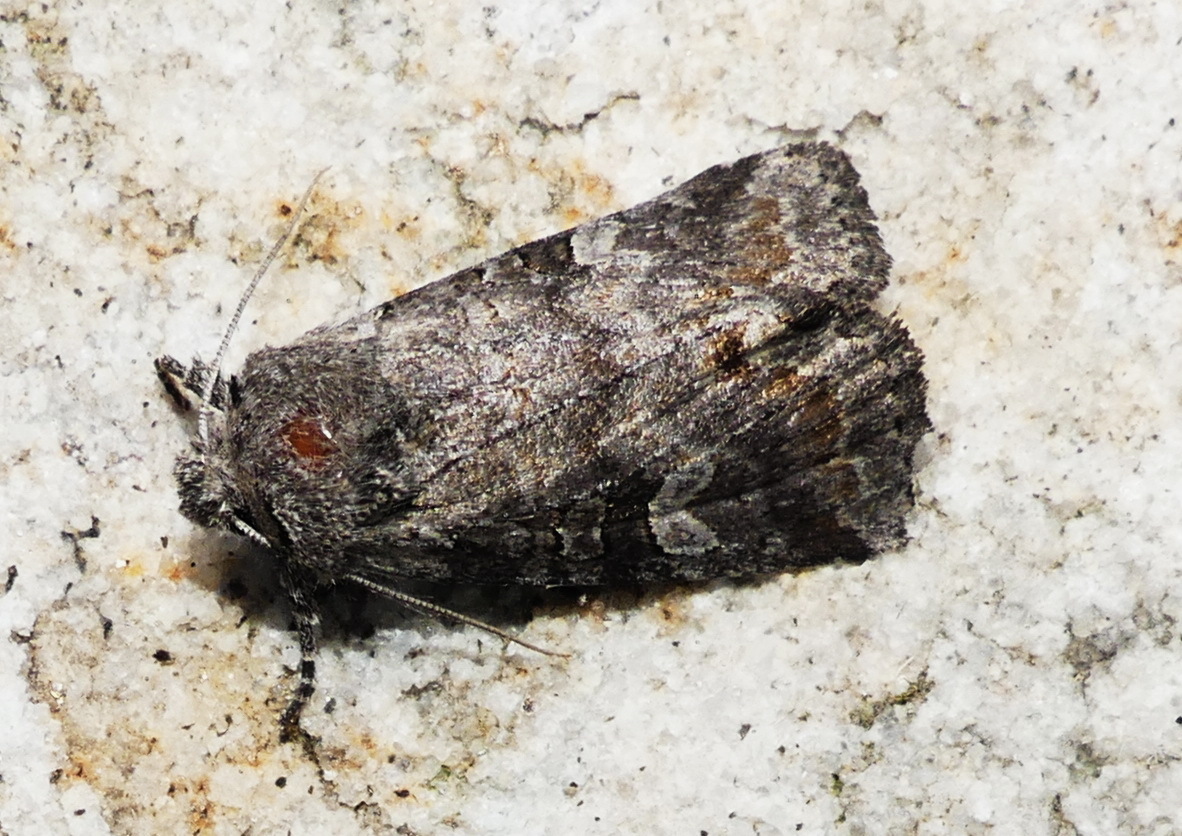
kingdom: Animalia
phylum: Arthropoda
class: Insecta
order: Lepidoptera
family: Noctuidae
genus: Brachylomia
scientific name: Brachylomia algens
